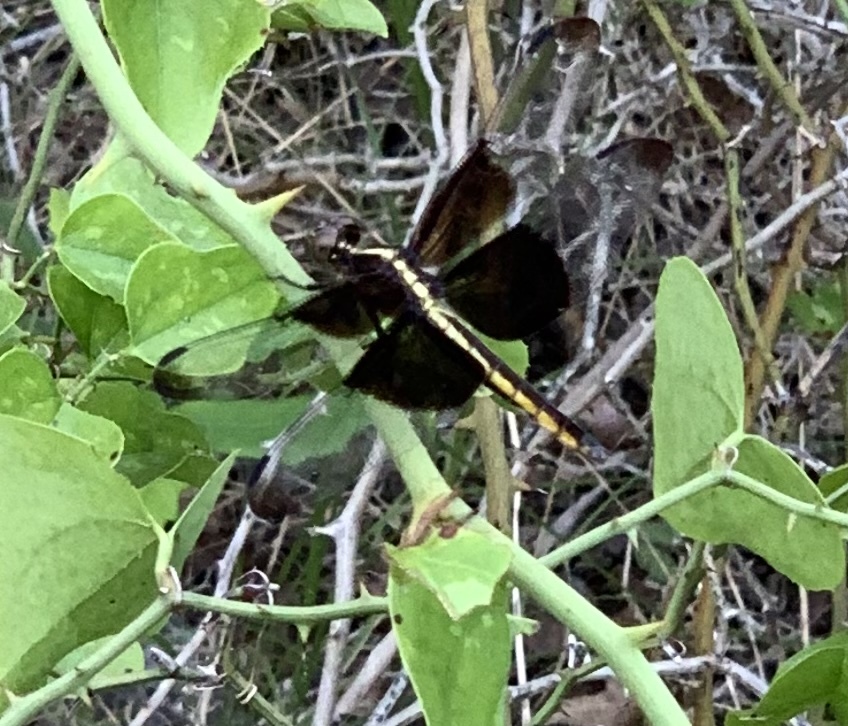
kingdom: Animalia
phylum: Arthropoda
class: Insecta
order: Odonata
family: Libellulidae
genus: Libellula
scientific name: Libellula luctuosa
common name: Widow skimmer
